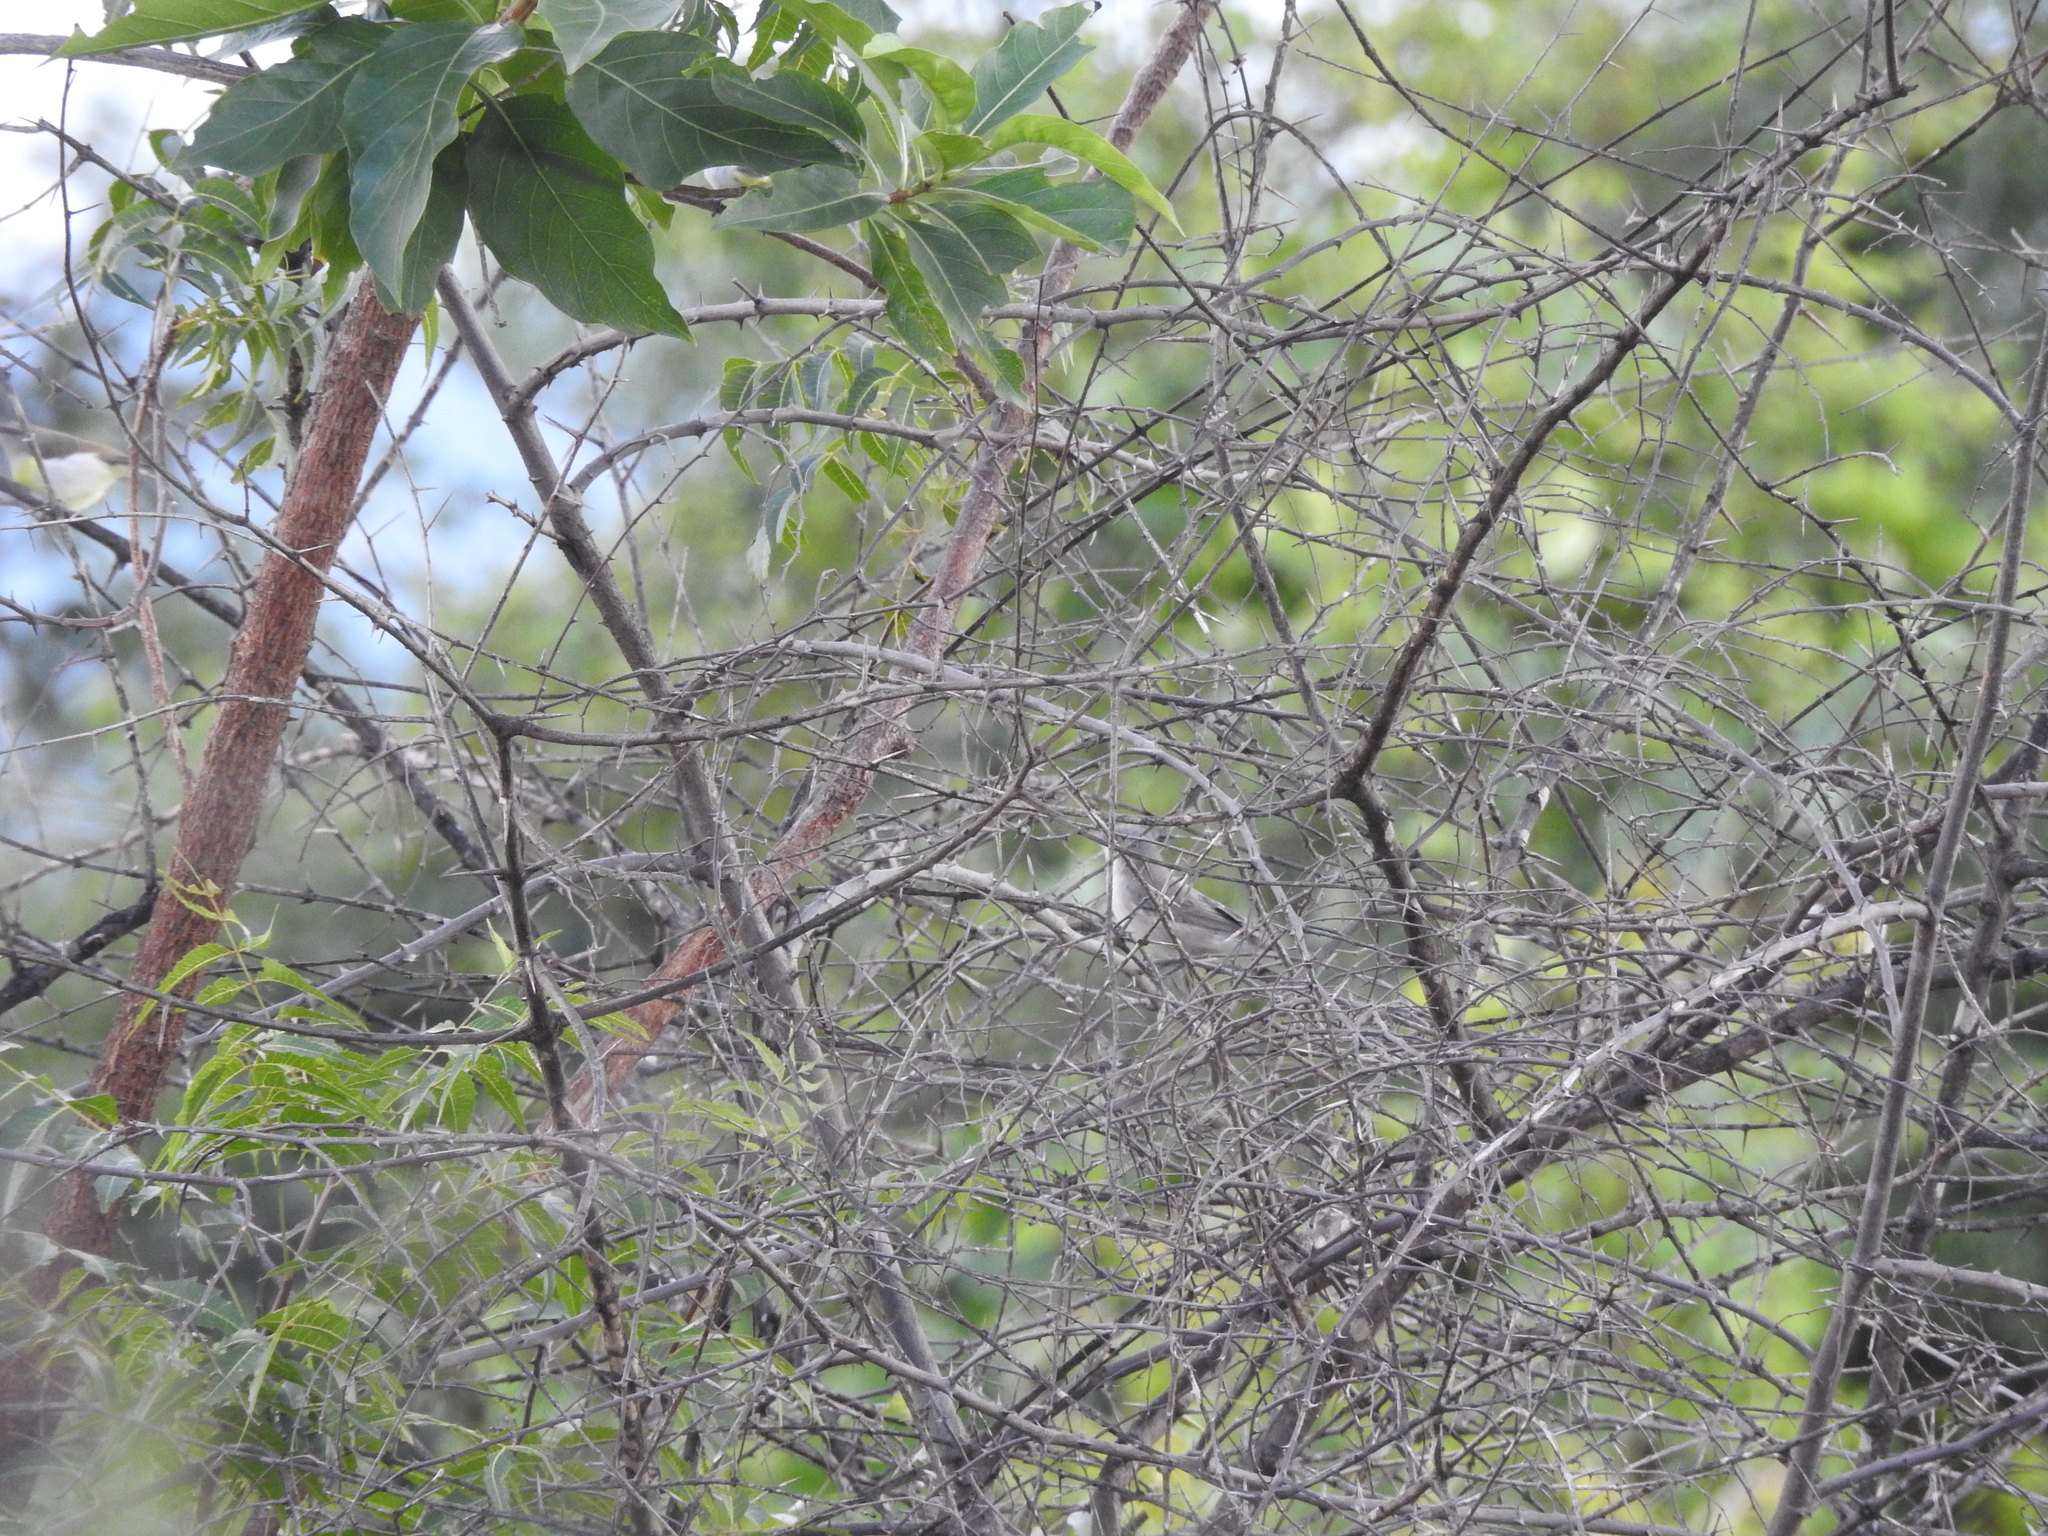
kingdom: Animalia
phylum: Chordata
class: Aves
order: Passeriformes
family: Sylviidae
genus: Sylvia
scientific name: Sylvia curruca
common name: Lesser whitethroat
